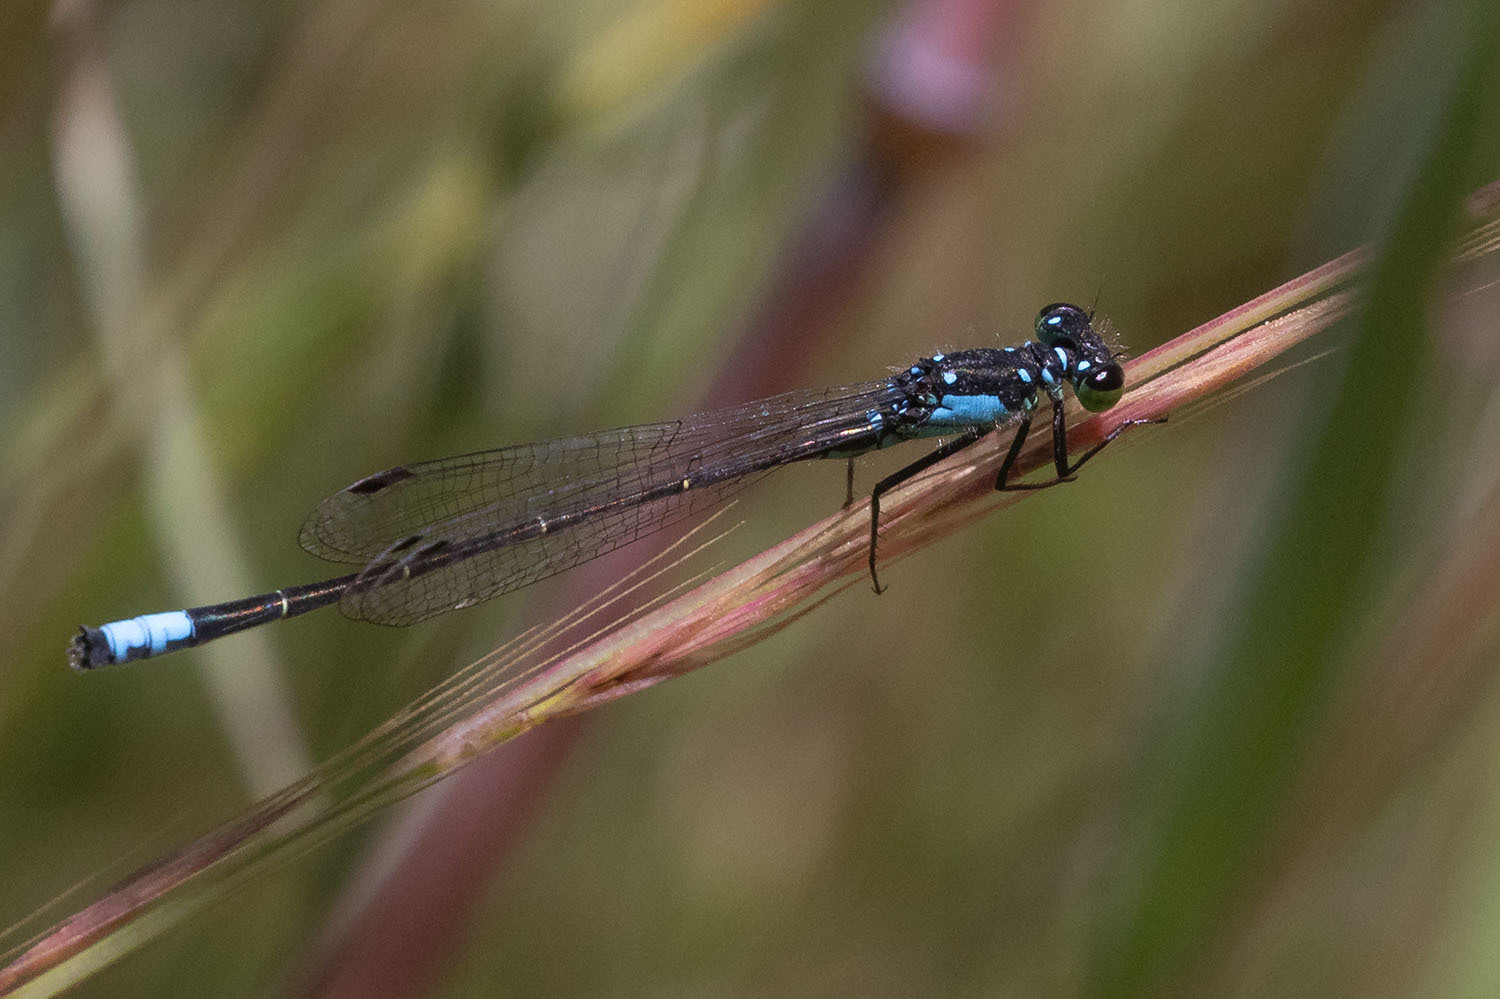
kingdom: Animalia
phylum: Arthropoda
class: Insecta
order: Odonata
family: Coenagrionidae
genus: Ischnura
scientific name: Ischnura cervula
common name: Pacific forktail
